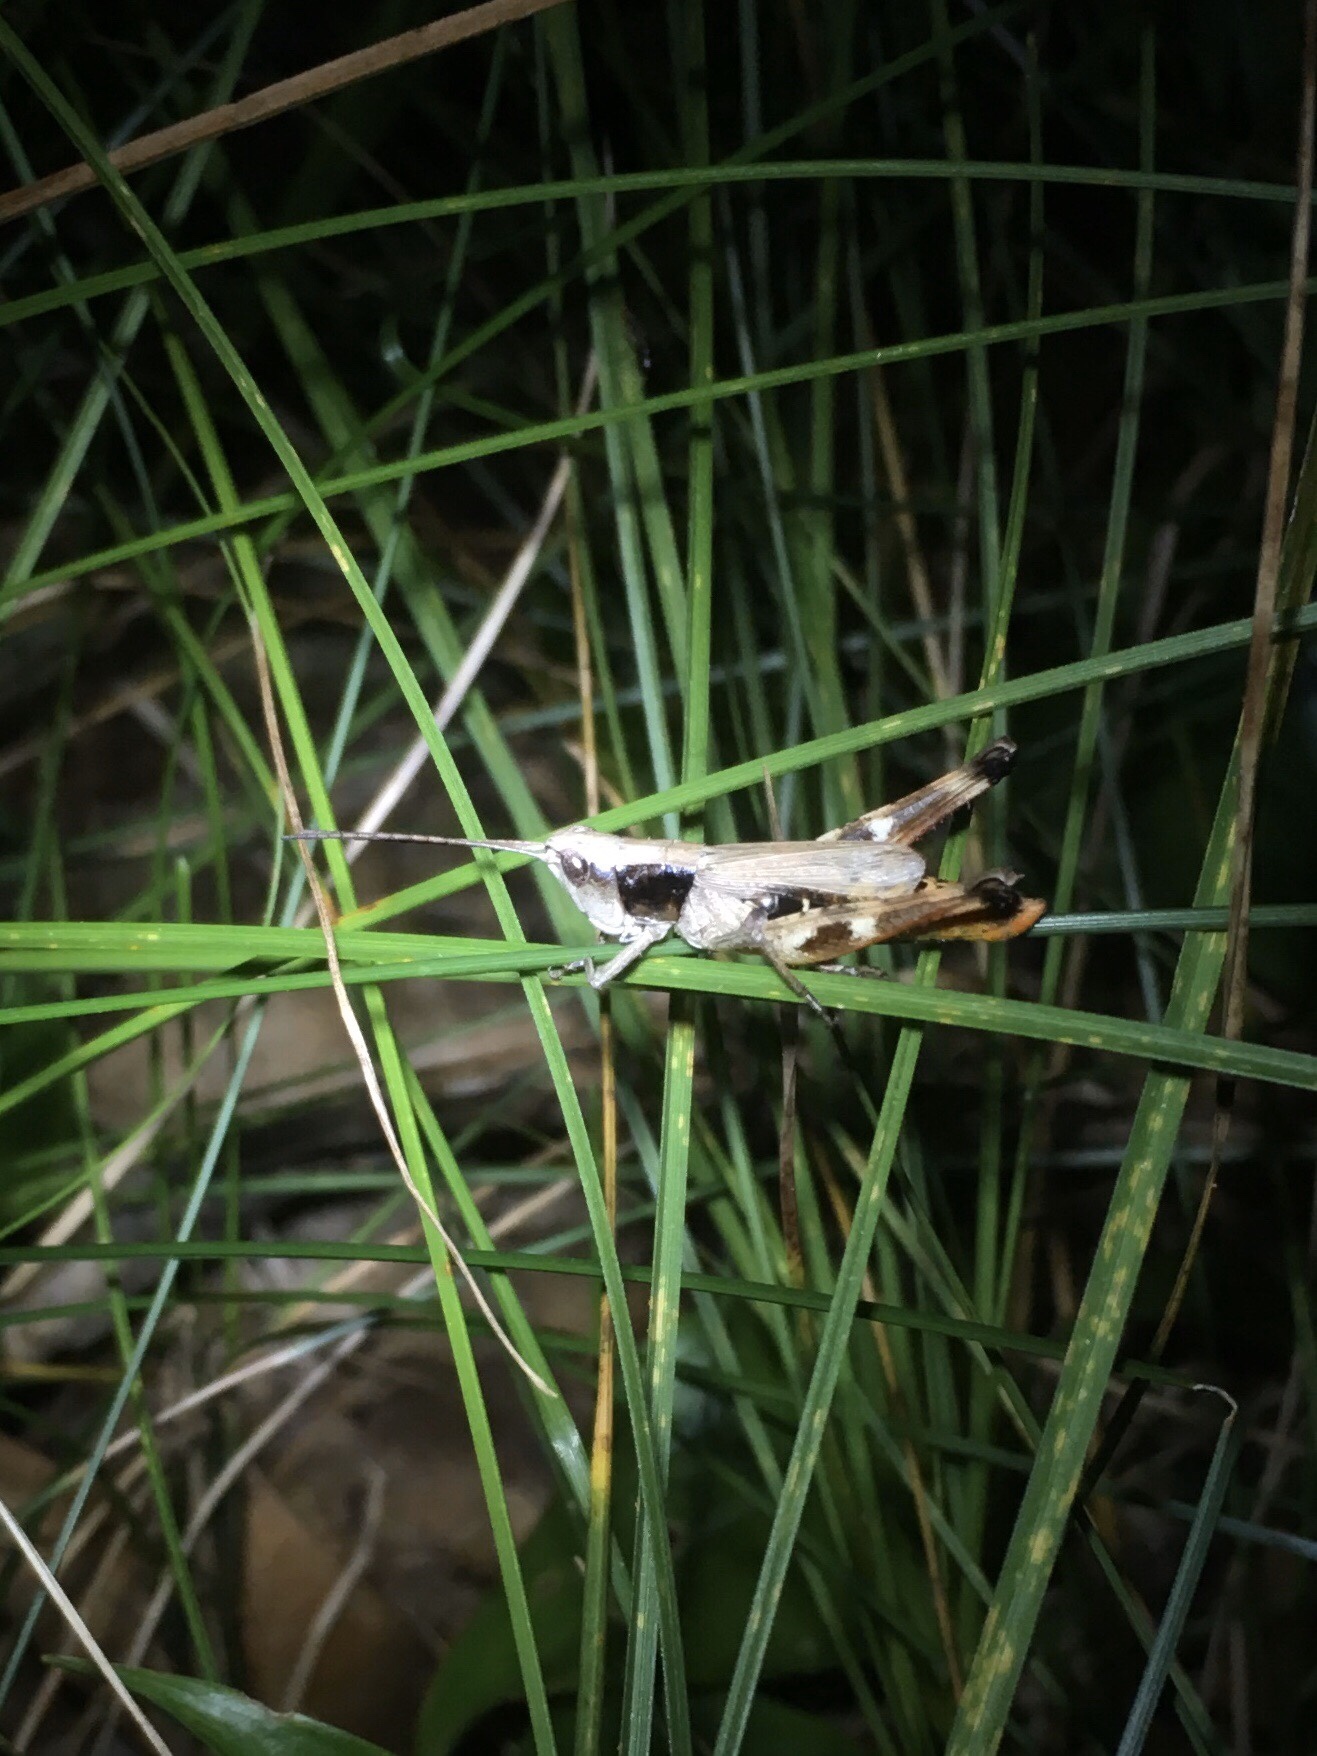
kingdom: Animalia
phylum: Arthropoda
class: Insecta
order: Orthoptera
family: Acrididae
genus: Chloealtis
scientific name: Chloealtis conspersa
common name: Sprinkled broad-winged grasshopper
